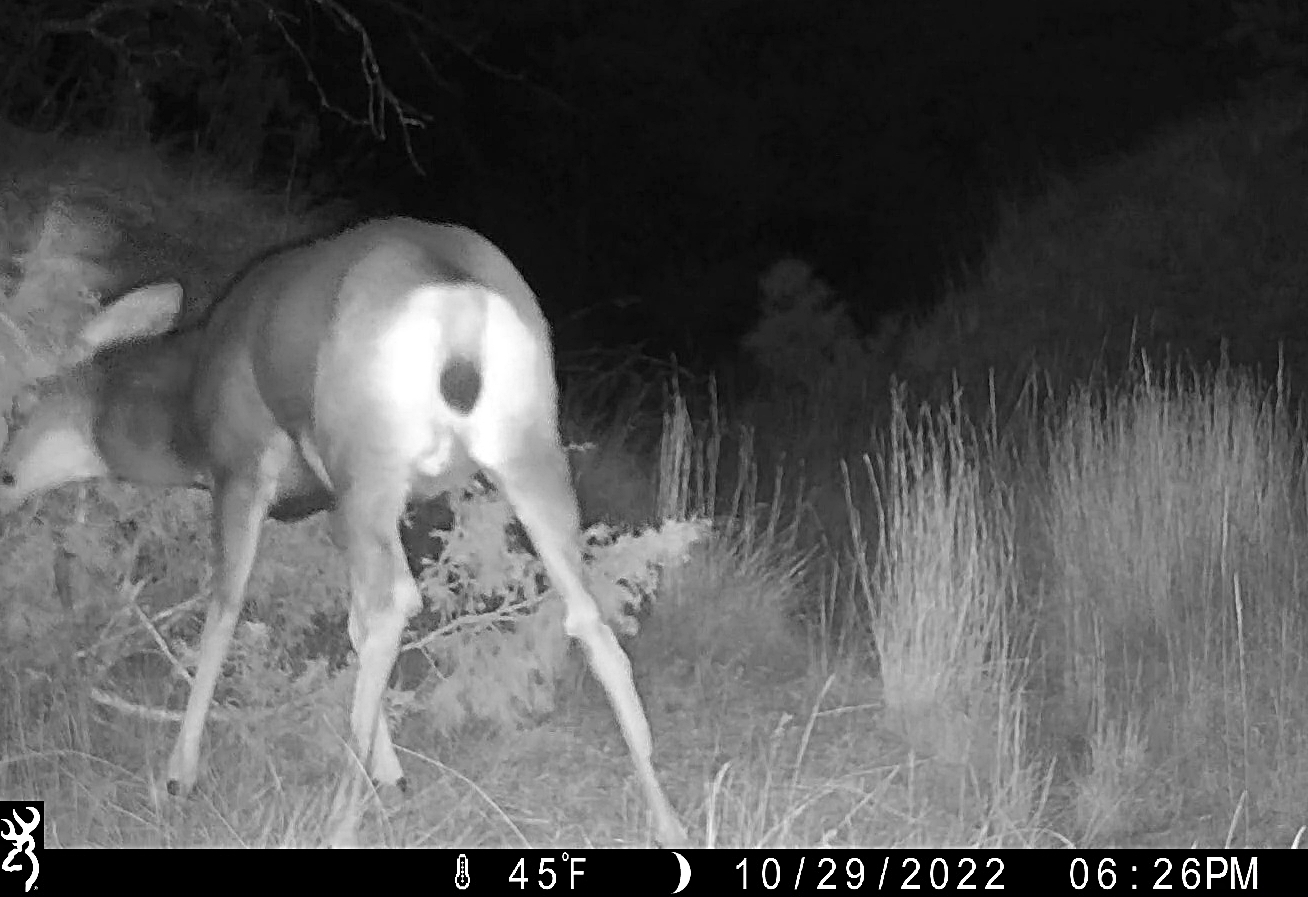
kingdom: Animalia
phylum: Chordata
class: Mammalia
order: Artiodactyla
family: Cervidae
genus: Odocoileus
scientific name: Odocoileus hemionus
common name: Mule deer
